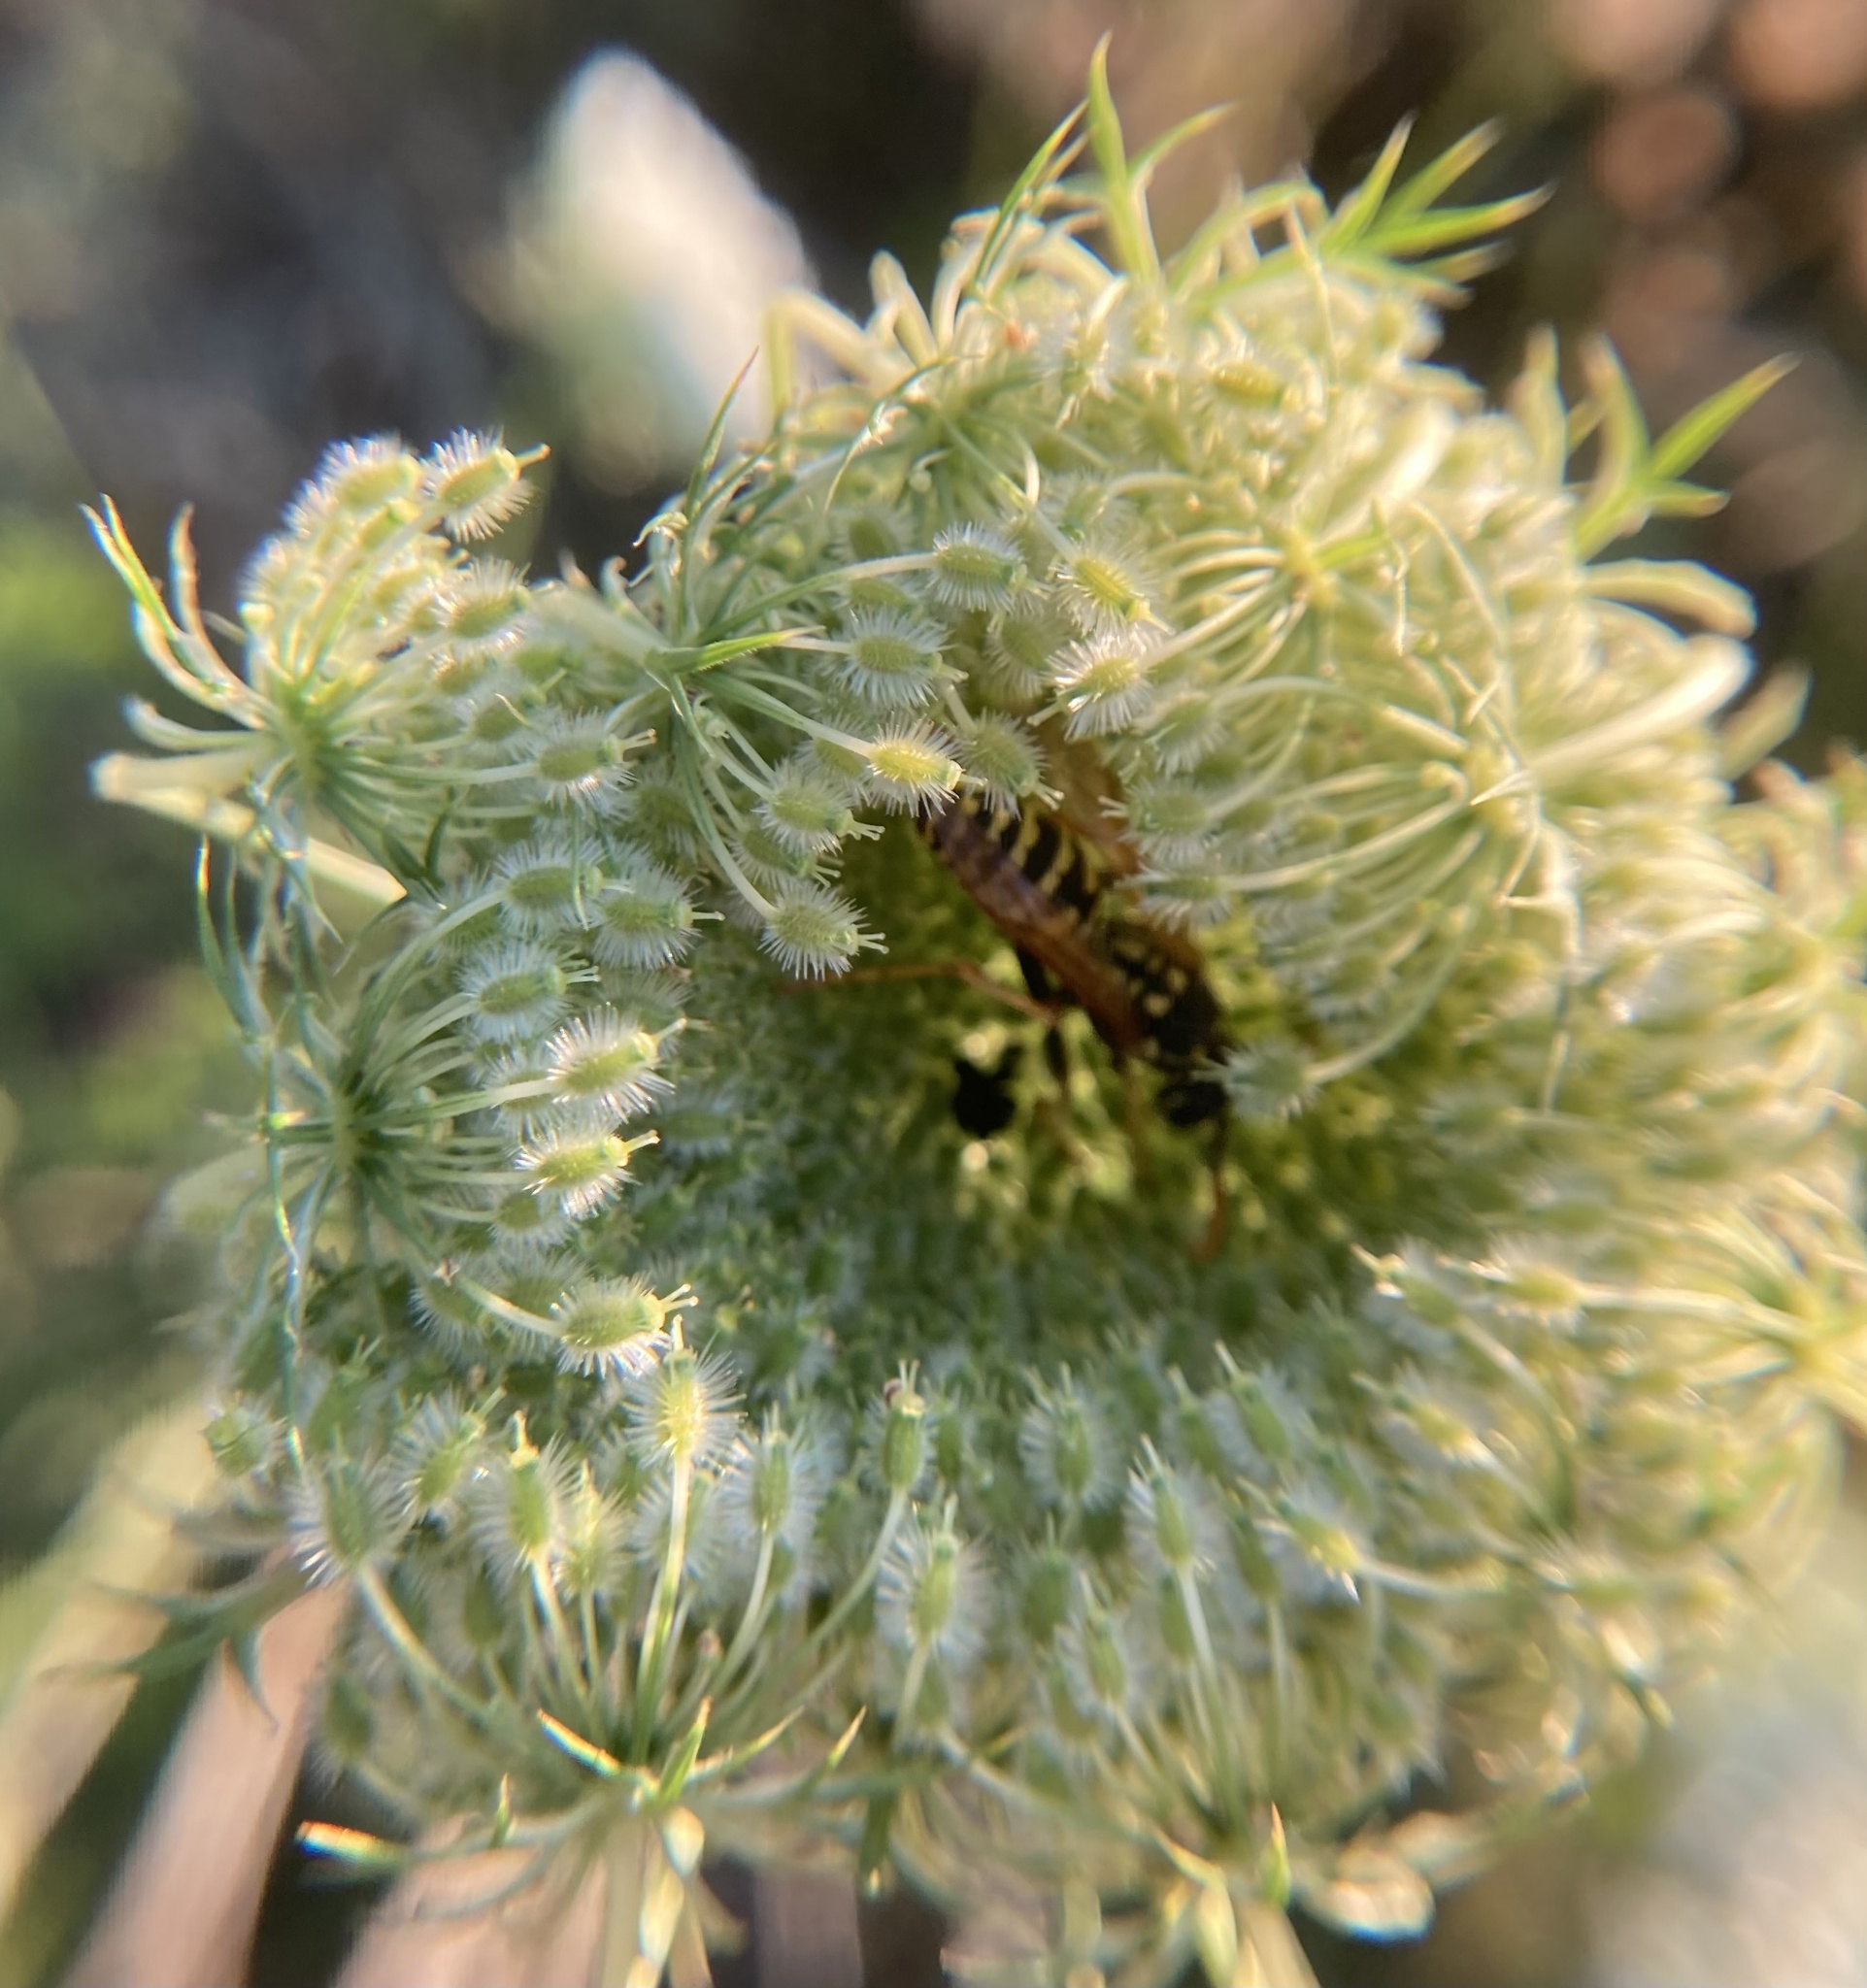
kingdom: Animalia
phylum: Arthropoda
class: Insecta
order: Hymenoptera
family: Eumenidae
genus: Polistes
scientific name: Polistes dominula
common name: Paper wasp
